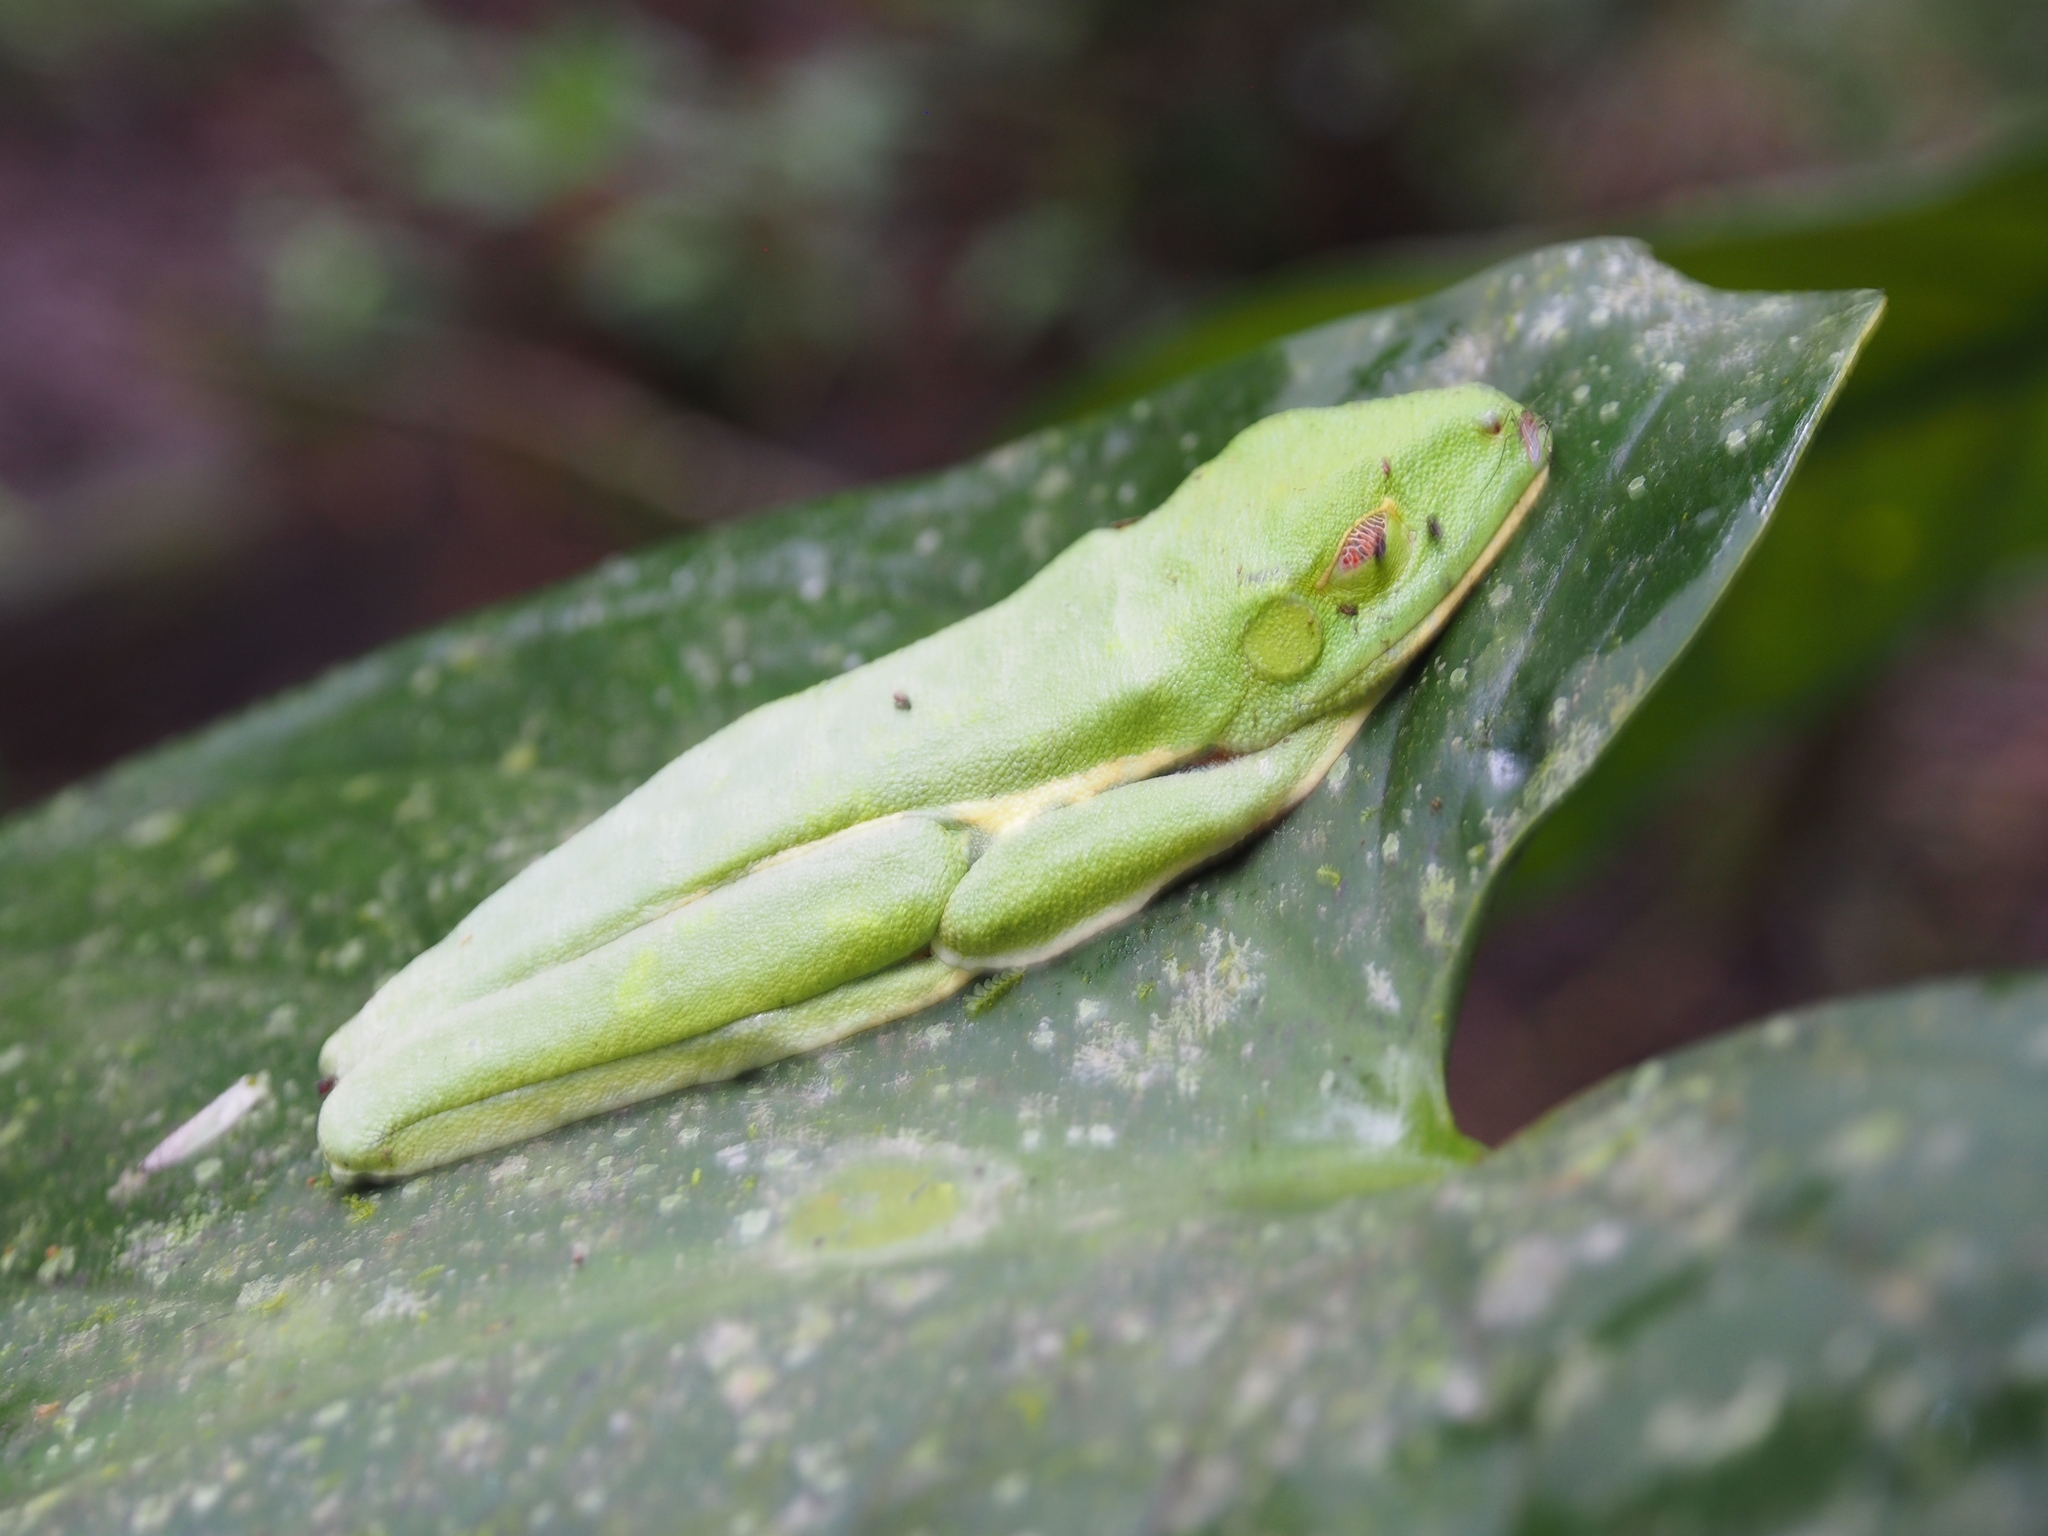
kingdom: Animalia
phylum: Chordata
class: Amphibia
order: Anura
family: Phyllomedusidae
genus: Agalychnis
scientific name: Agalychnis callidryas
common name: Red-eyed treefrog
